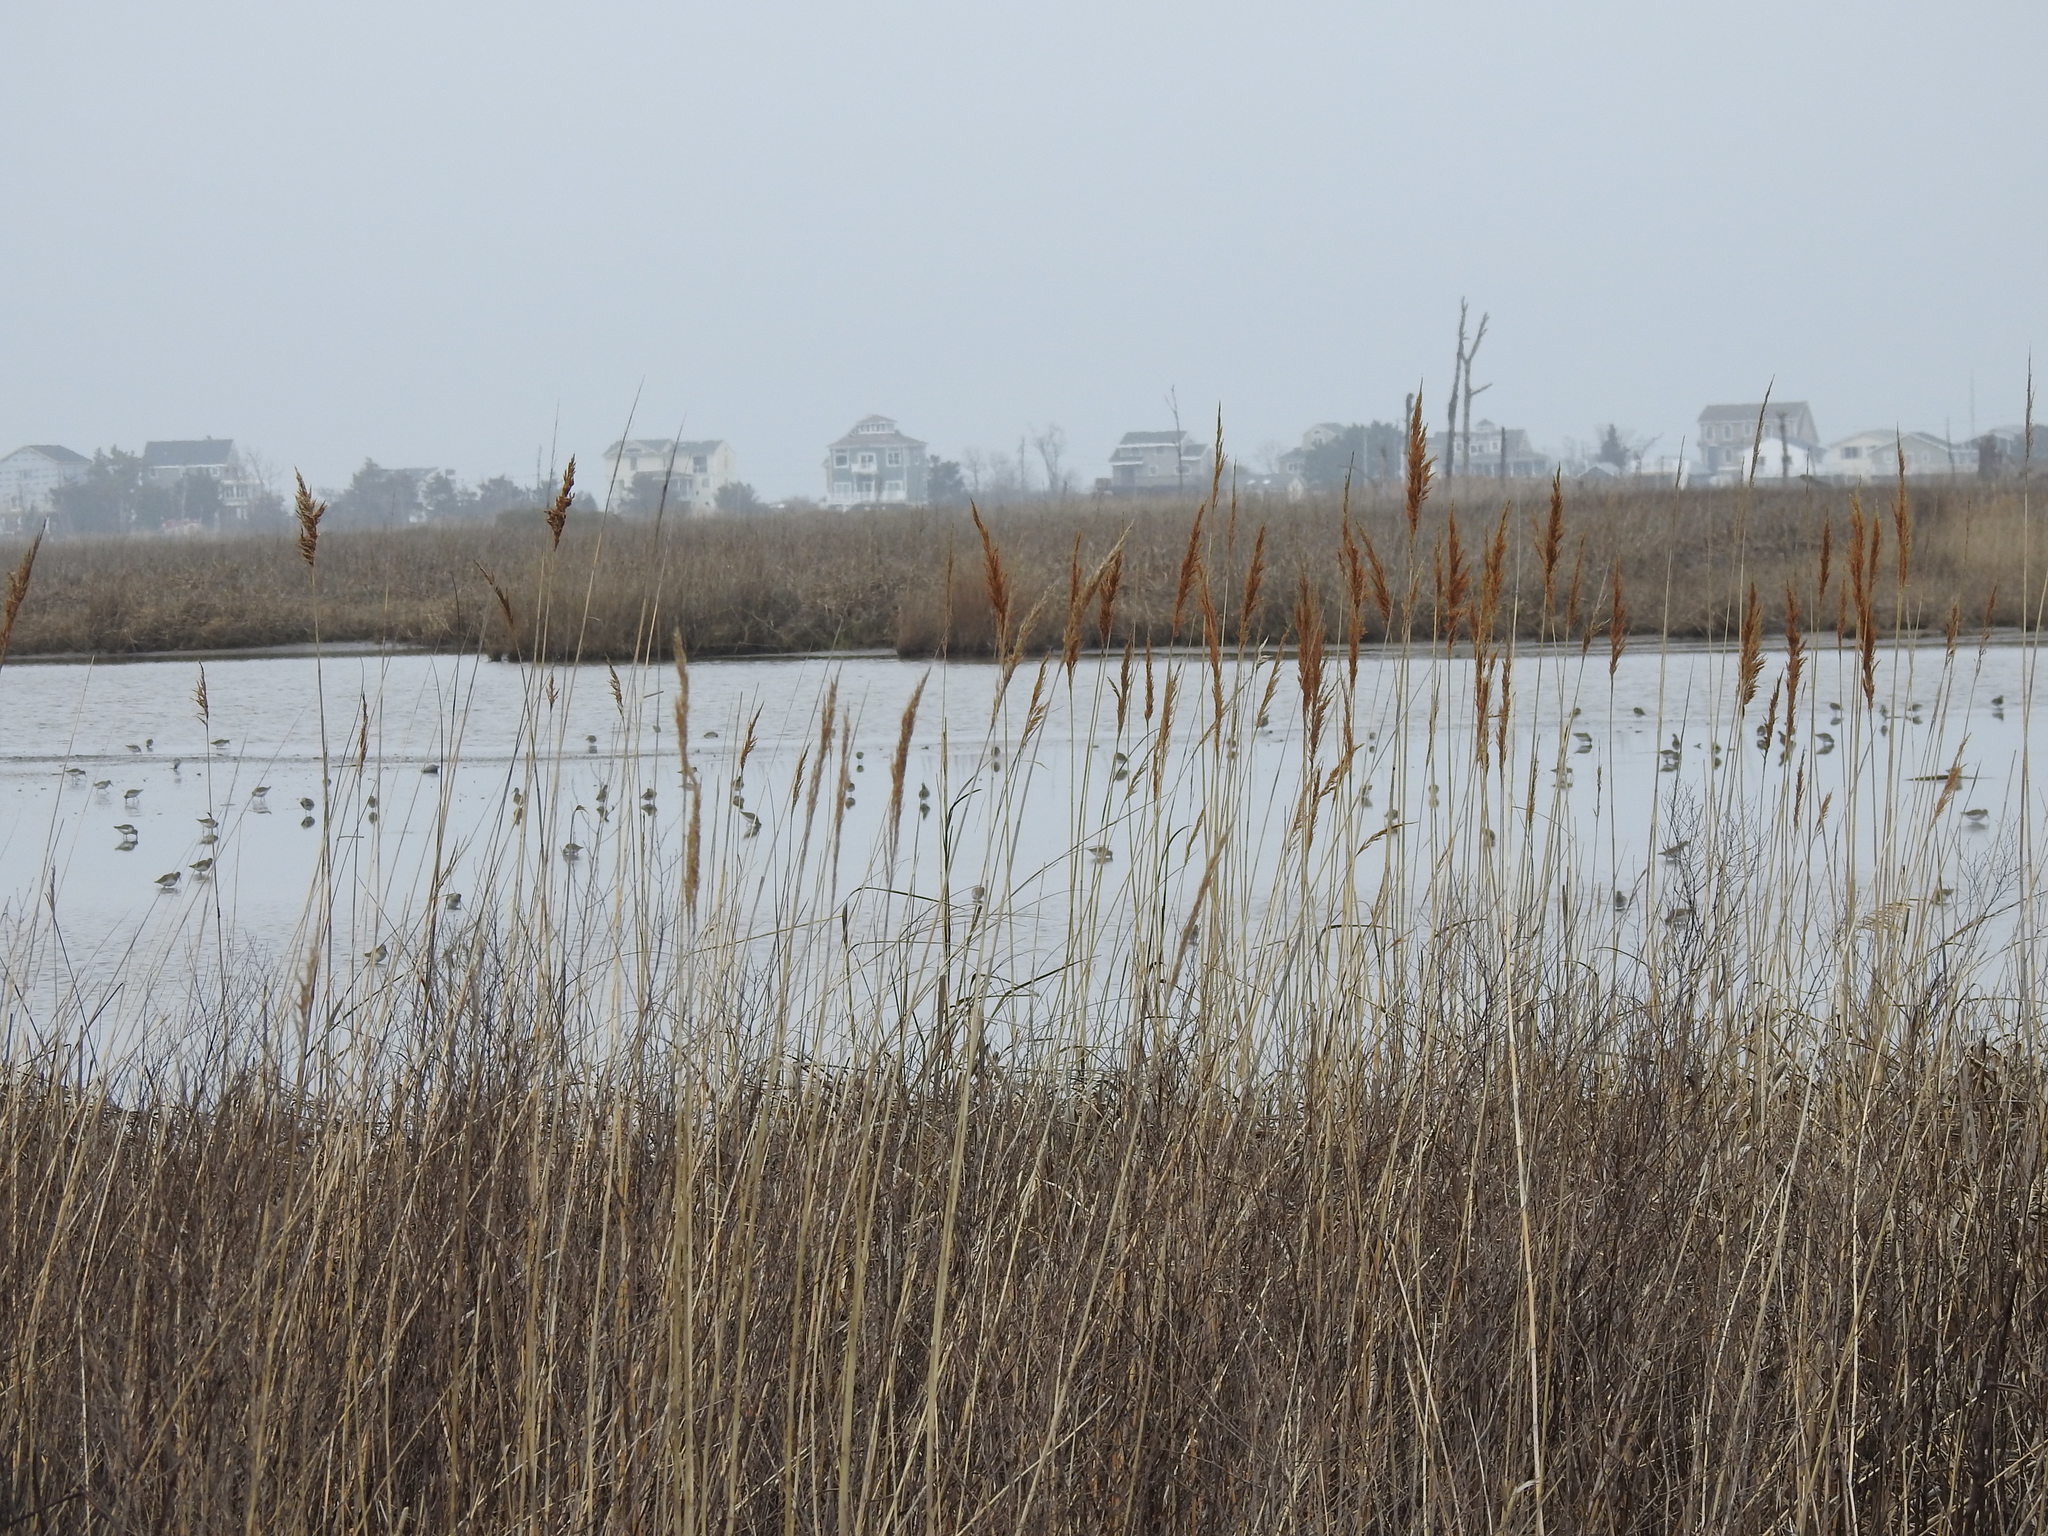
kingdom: Animalia
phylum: Chordata
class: Aves
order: Charadriiformes
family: Scolopacidae
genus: Calidris
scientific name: Calidris alpina
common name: Dunlin
